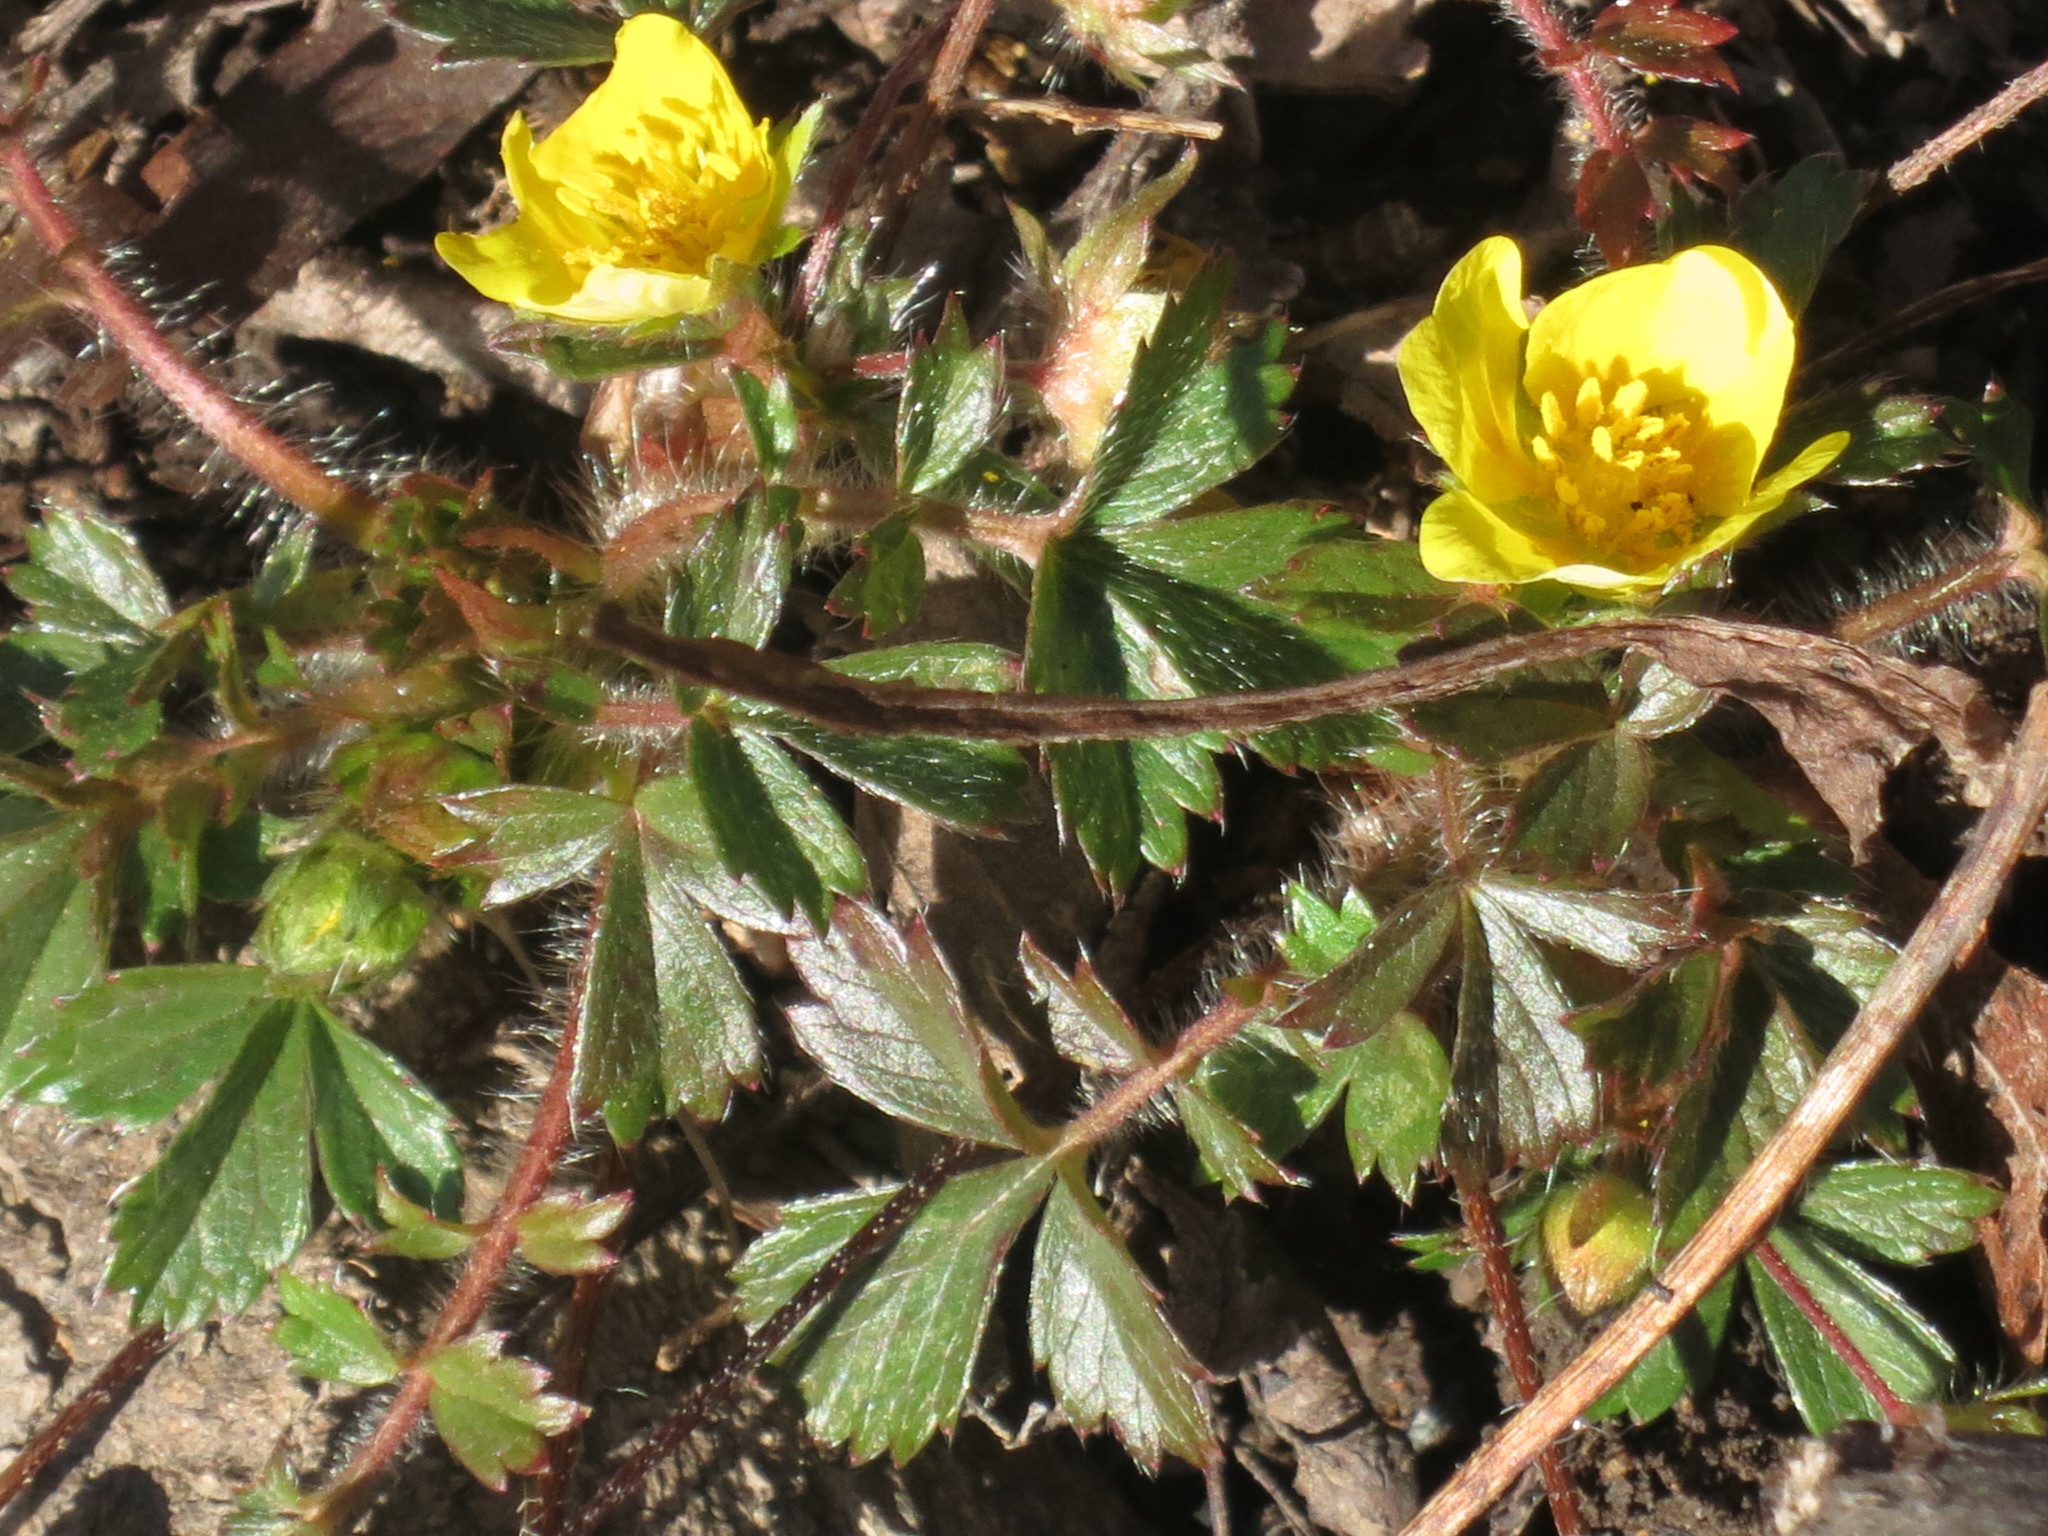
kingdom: Plantae
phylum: Tracheophyta
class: Magnoliopsida
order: Rosales
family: Rosaceae
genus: Potentilla
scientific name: Potentilla fragarioides
